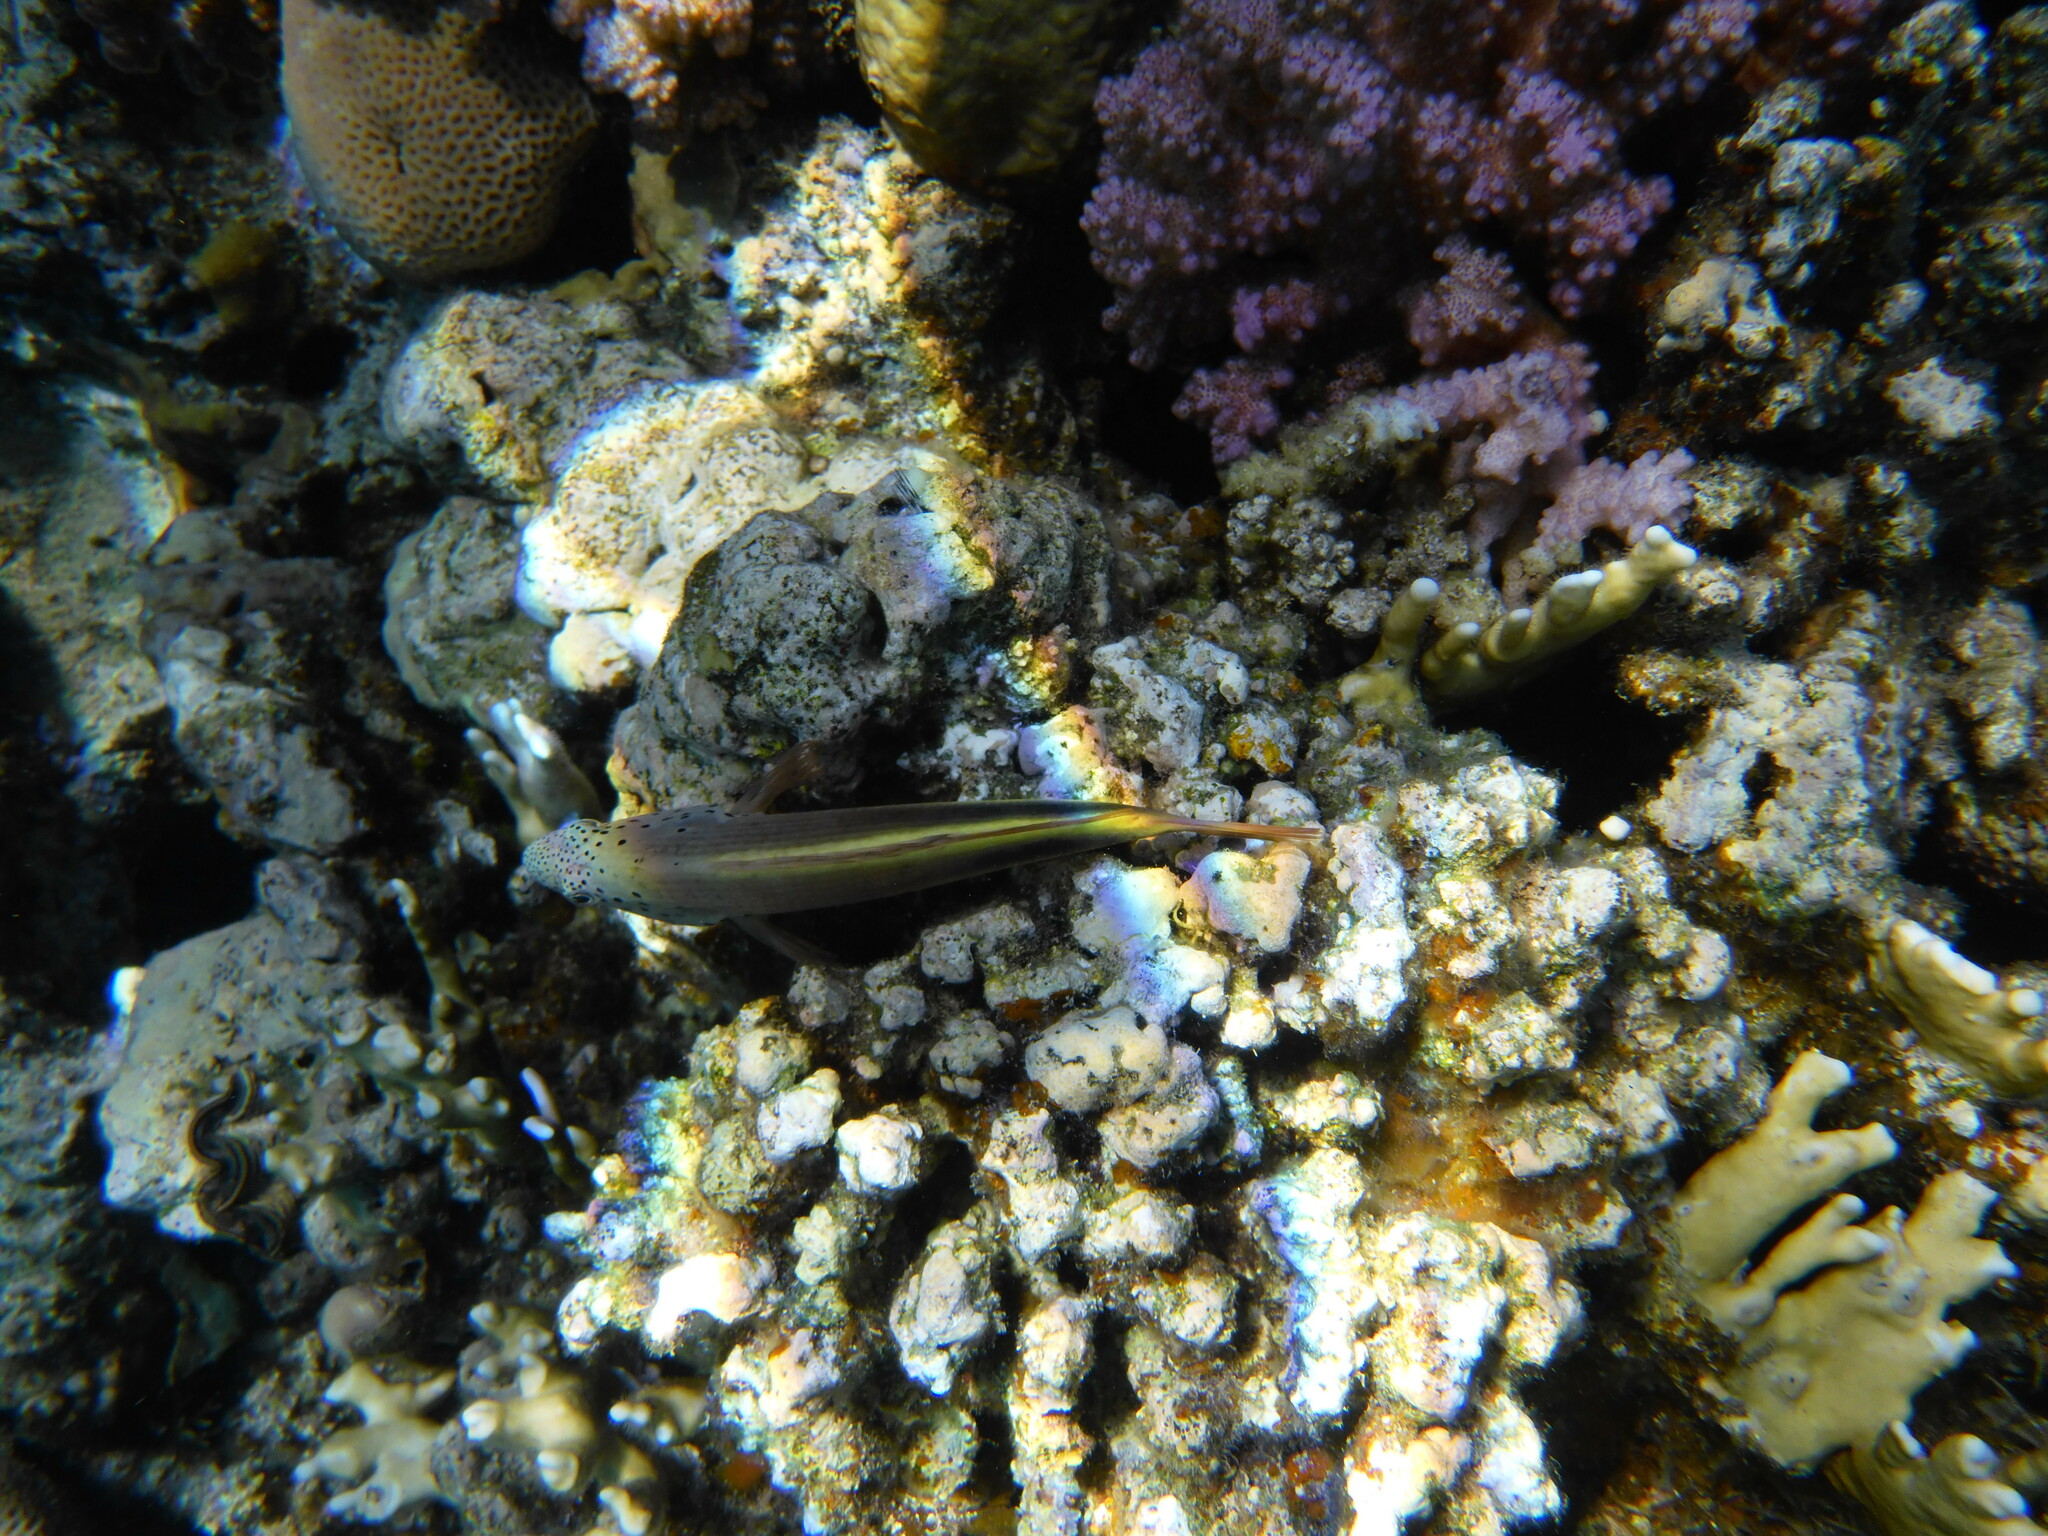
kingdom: Animalia
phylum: Chordata
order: Perciformes
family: Cirrhitidae
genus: Paracirrhites
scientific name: Paracirrhites forsteri
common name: Freckled hawkfish
